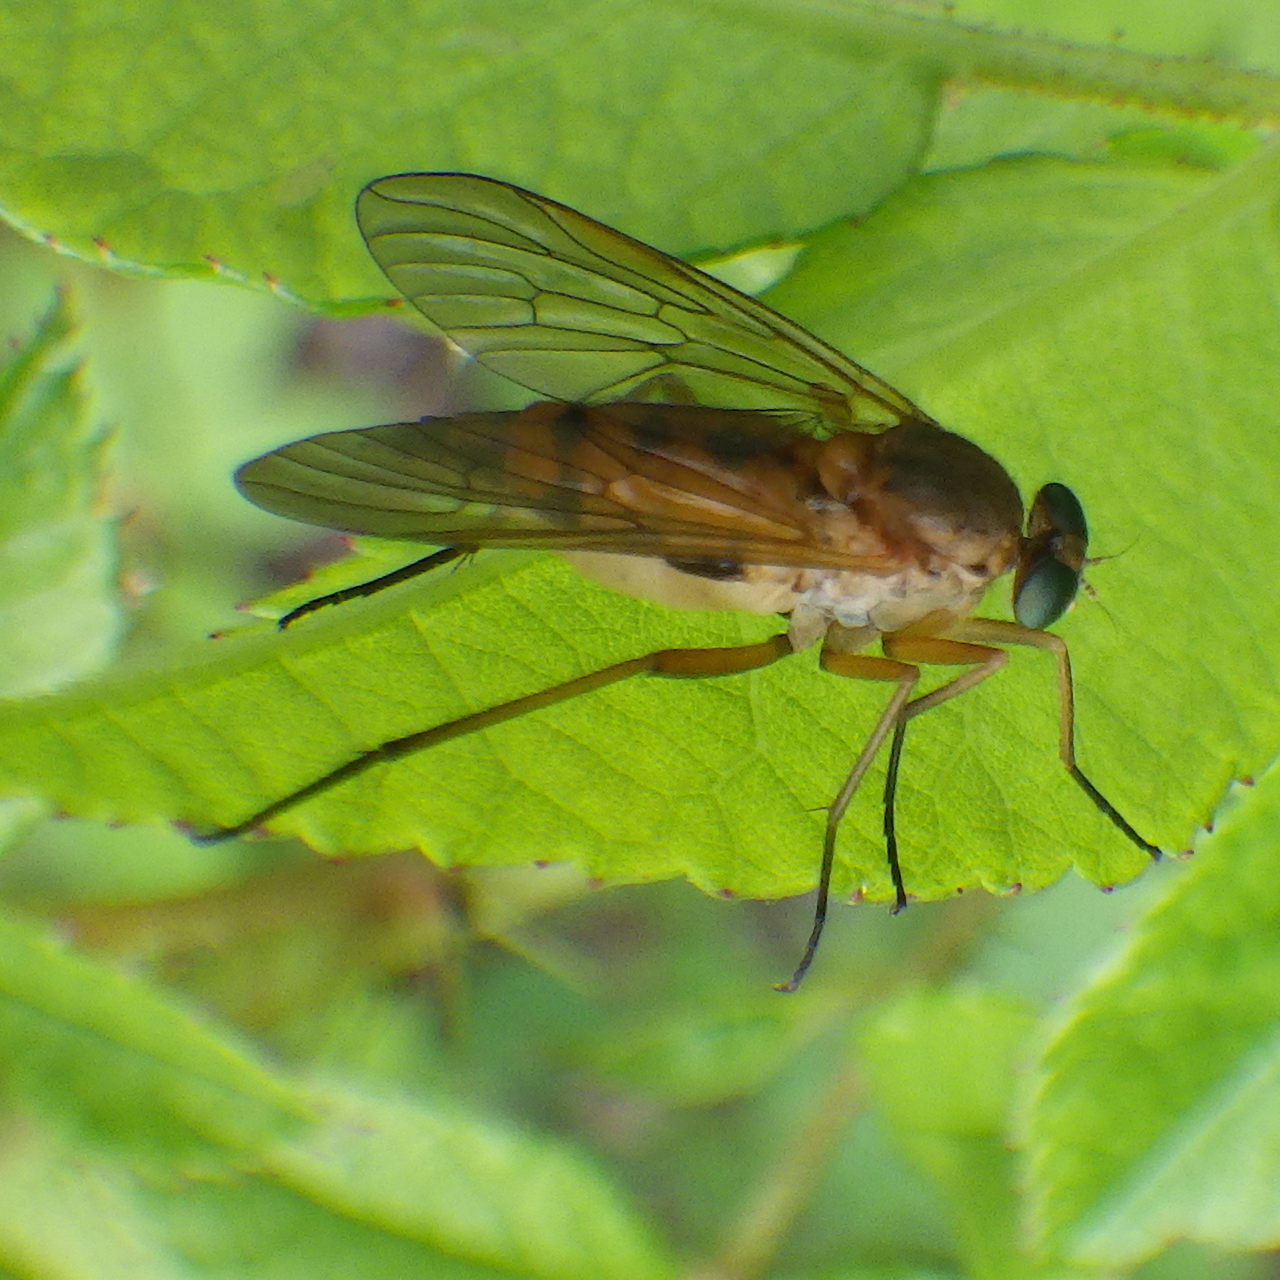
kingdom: Animalia
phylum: Arthropoda
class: Insecta
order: Diptera
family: Rhagionidae
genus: Rhagio
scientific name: Rhagio tringaria
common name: Marsh snipefly
